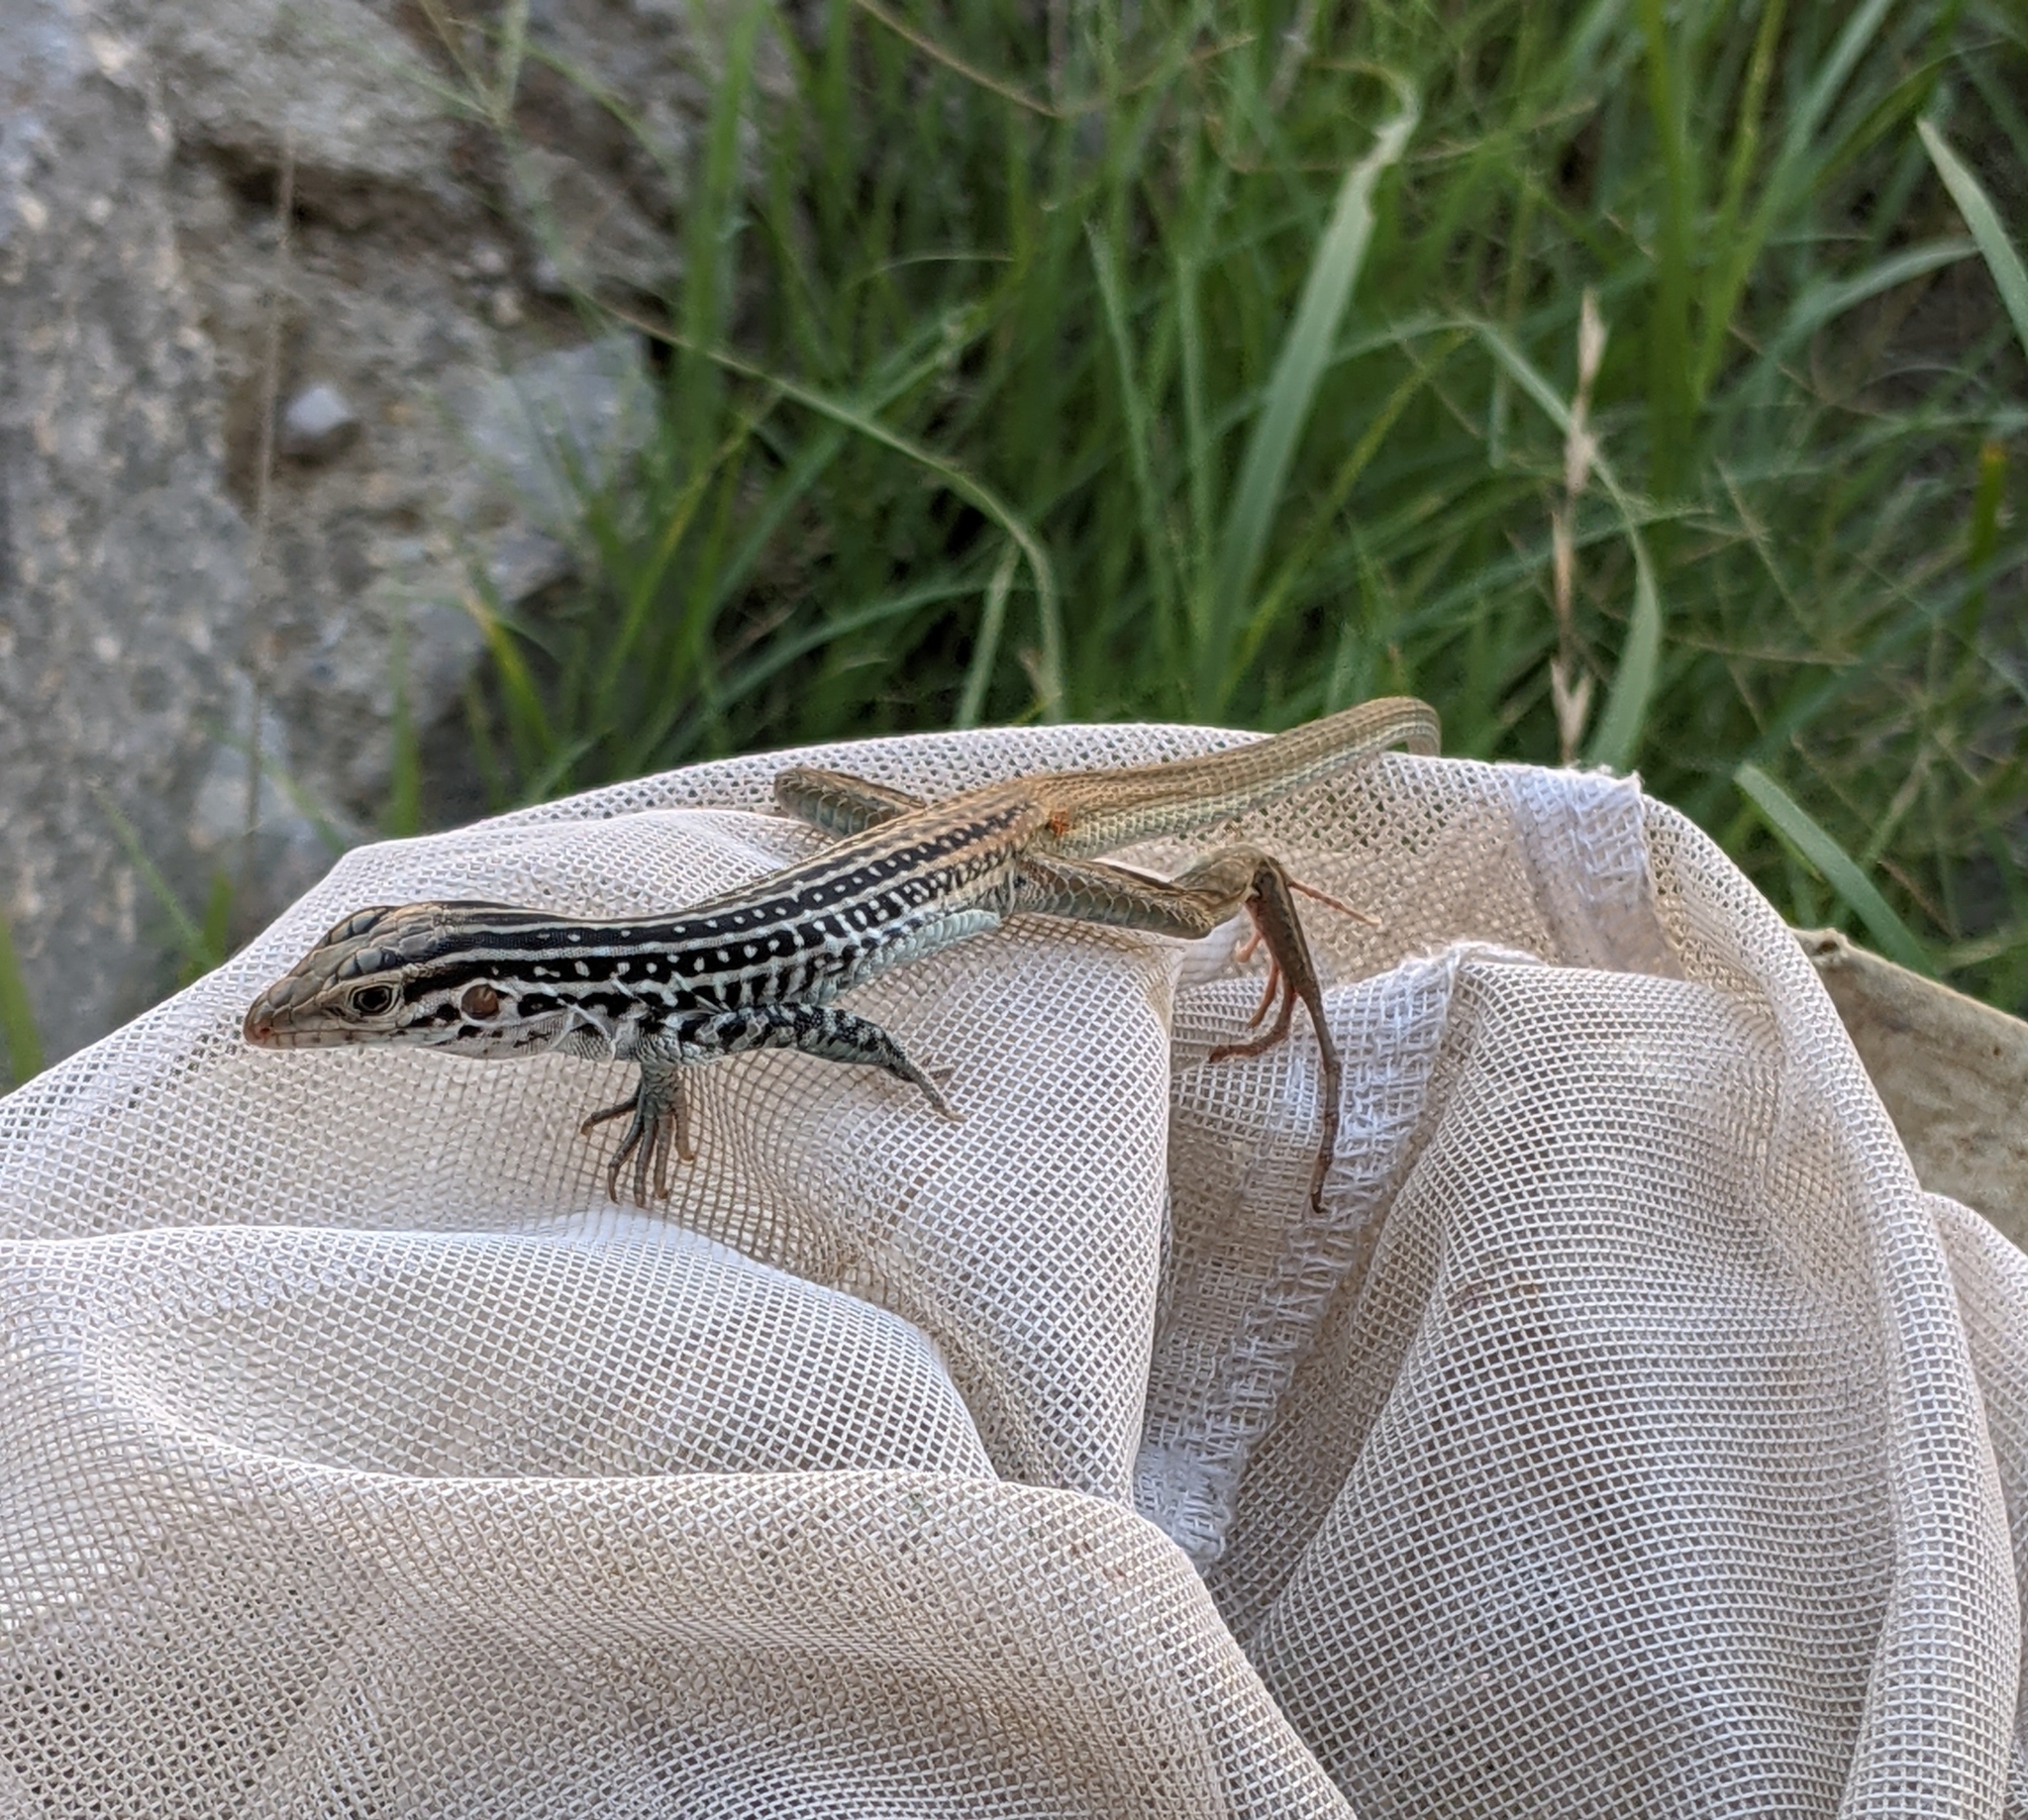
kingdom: Animalia
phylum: Chordata
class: Squamata
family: Teiidae
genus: Aspidoscelis
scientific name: Aspidoscelis scalaris
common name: Rusty-rumped whiptail
